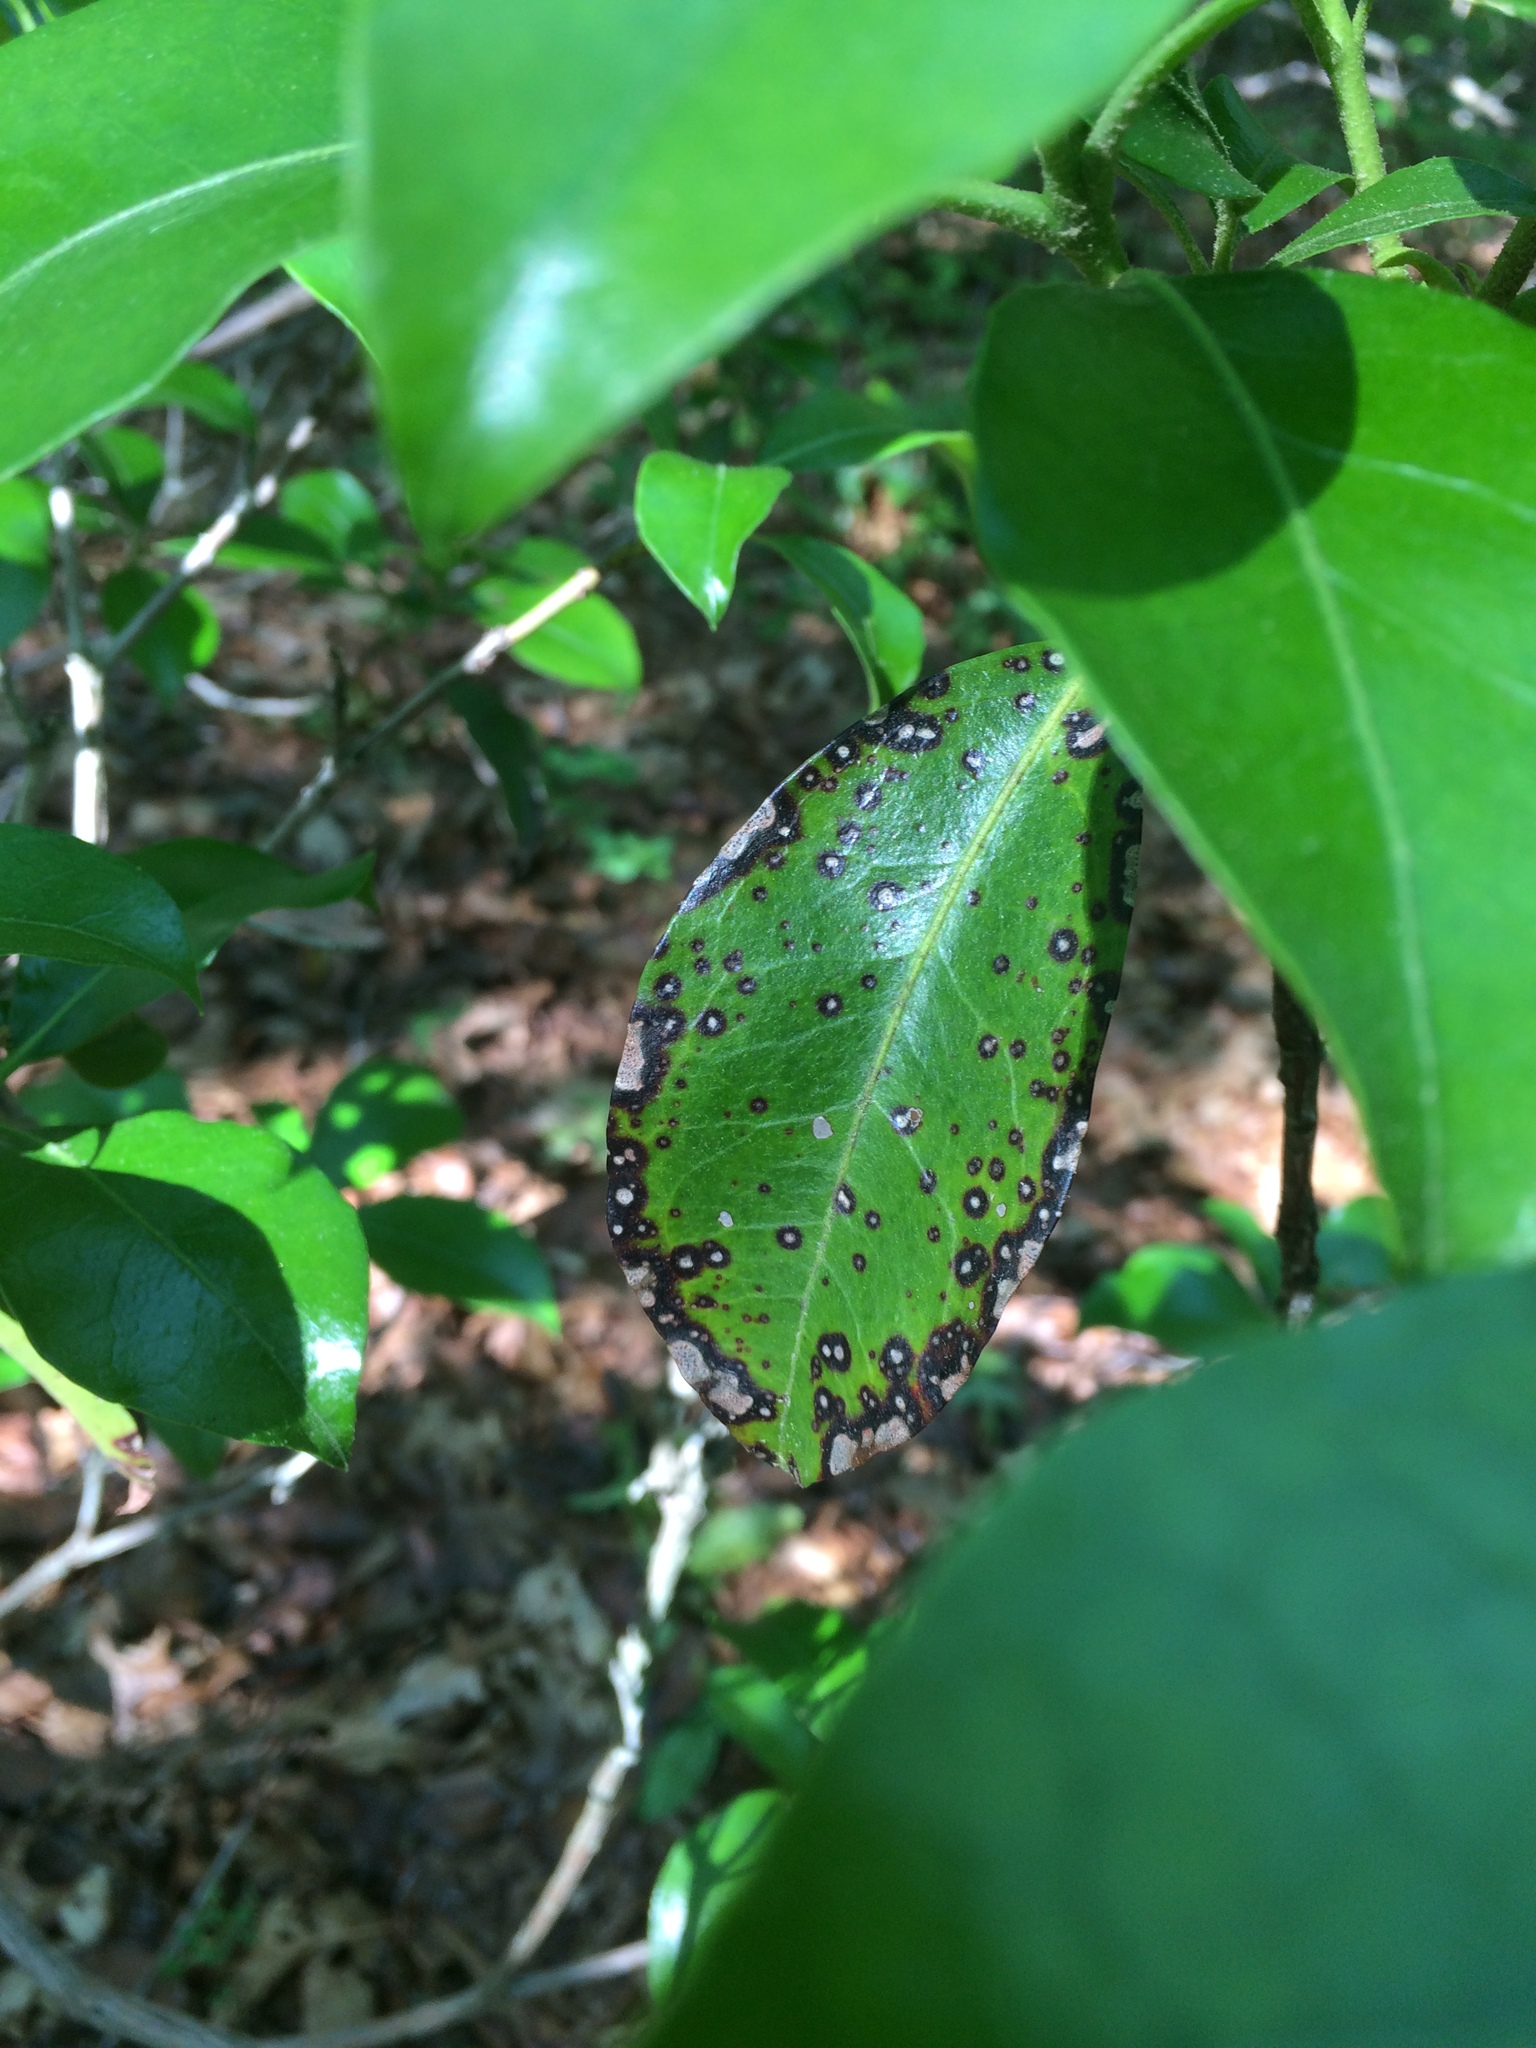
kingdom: Fungi
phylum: Ascomycota
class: Dothideomycetes
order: Mycosphaerellales
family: Mycosphaerellaceae
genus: Mycosphaerella
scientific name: Mycosphaerella colorata
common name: Mountain laurel leaf spot
